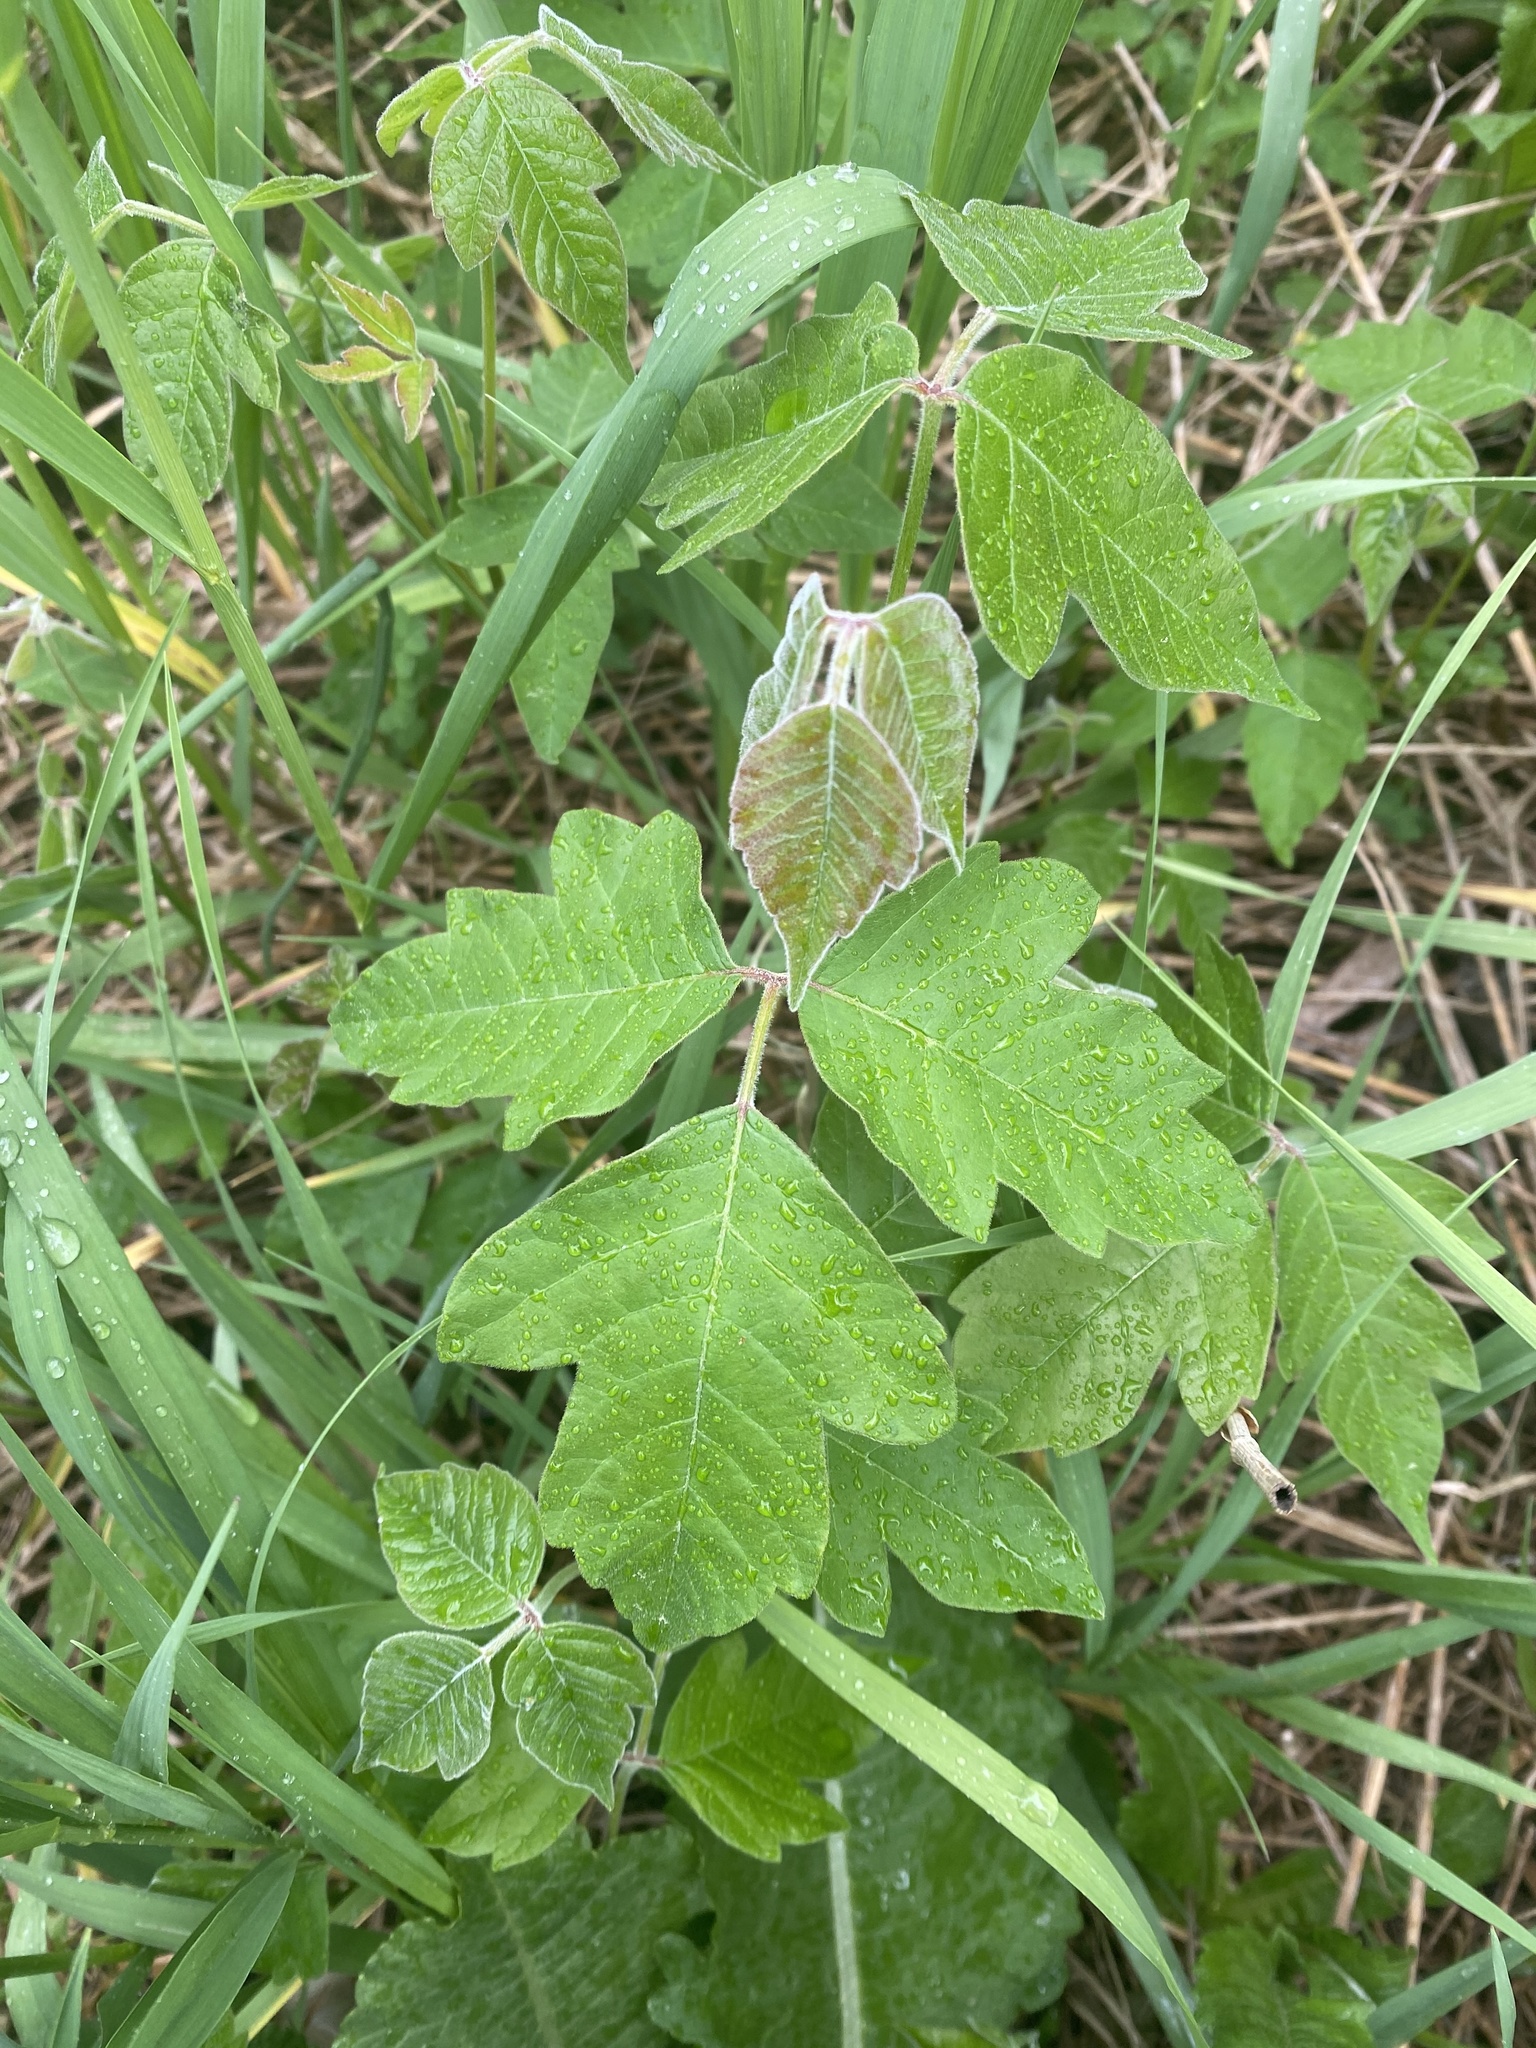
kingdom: Plantae
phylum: Tracheophyta
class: Magnoliopsida
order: Sapindales
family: Anacardiaceae
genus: Toxicodendron
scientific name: Toxicodendron radicans
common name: Poison ivy
